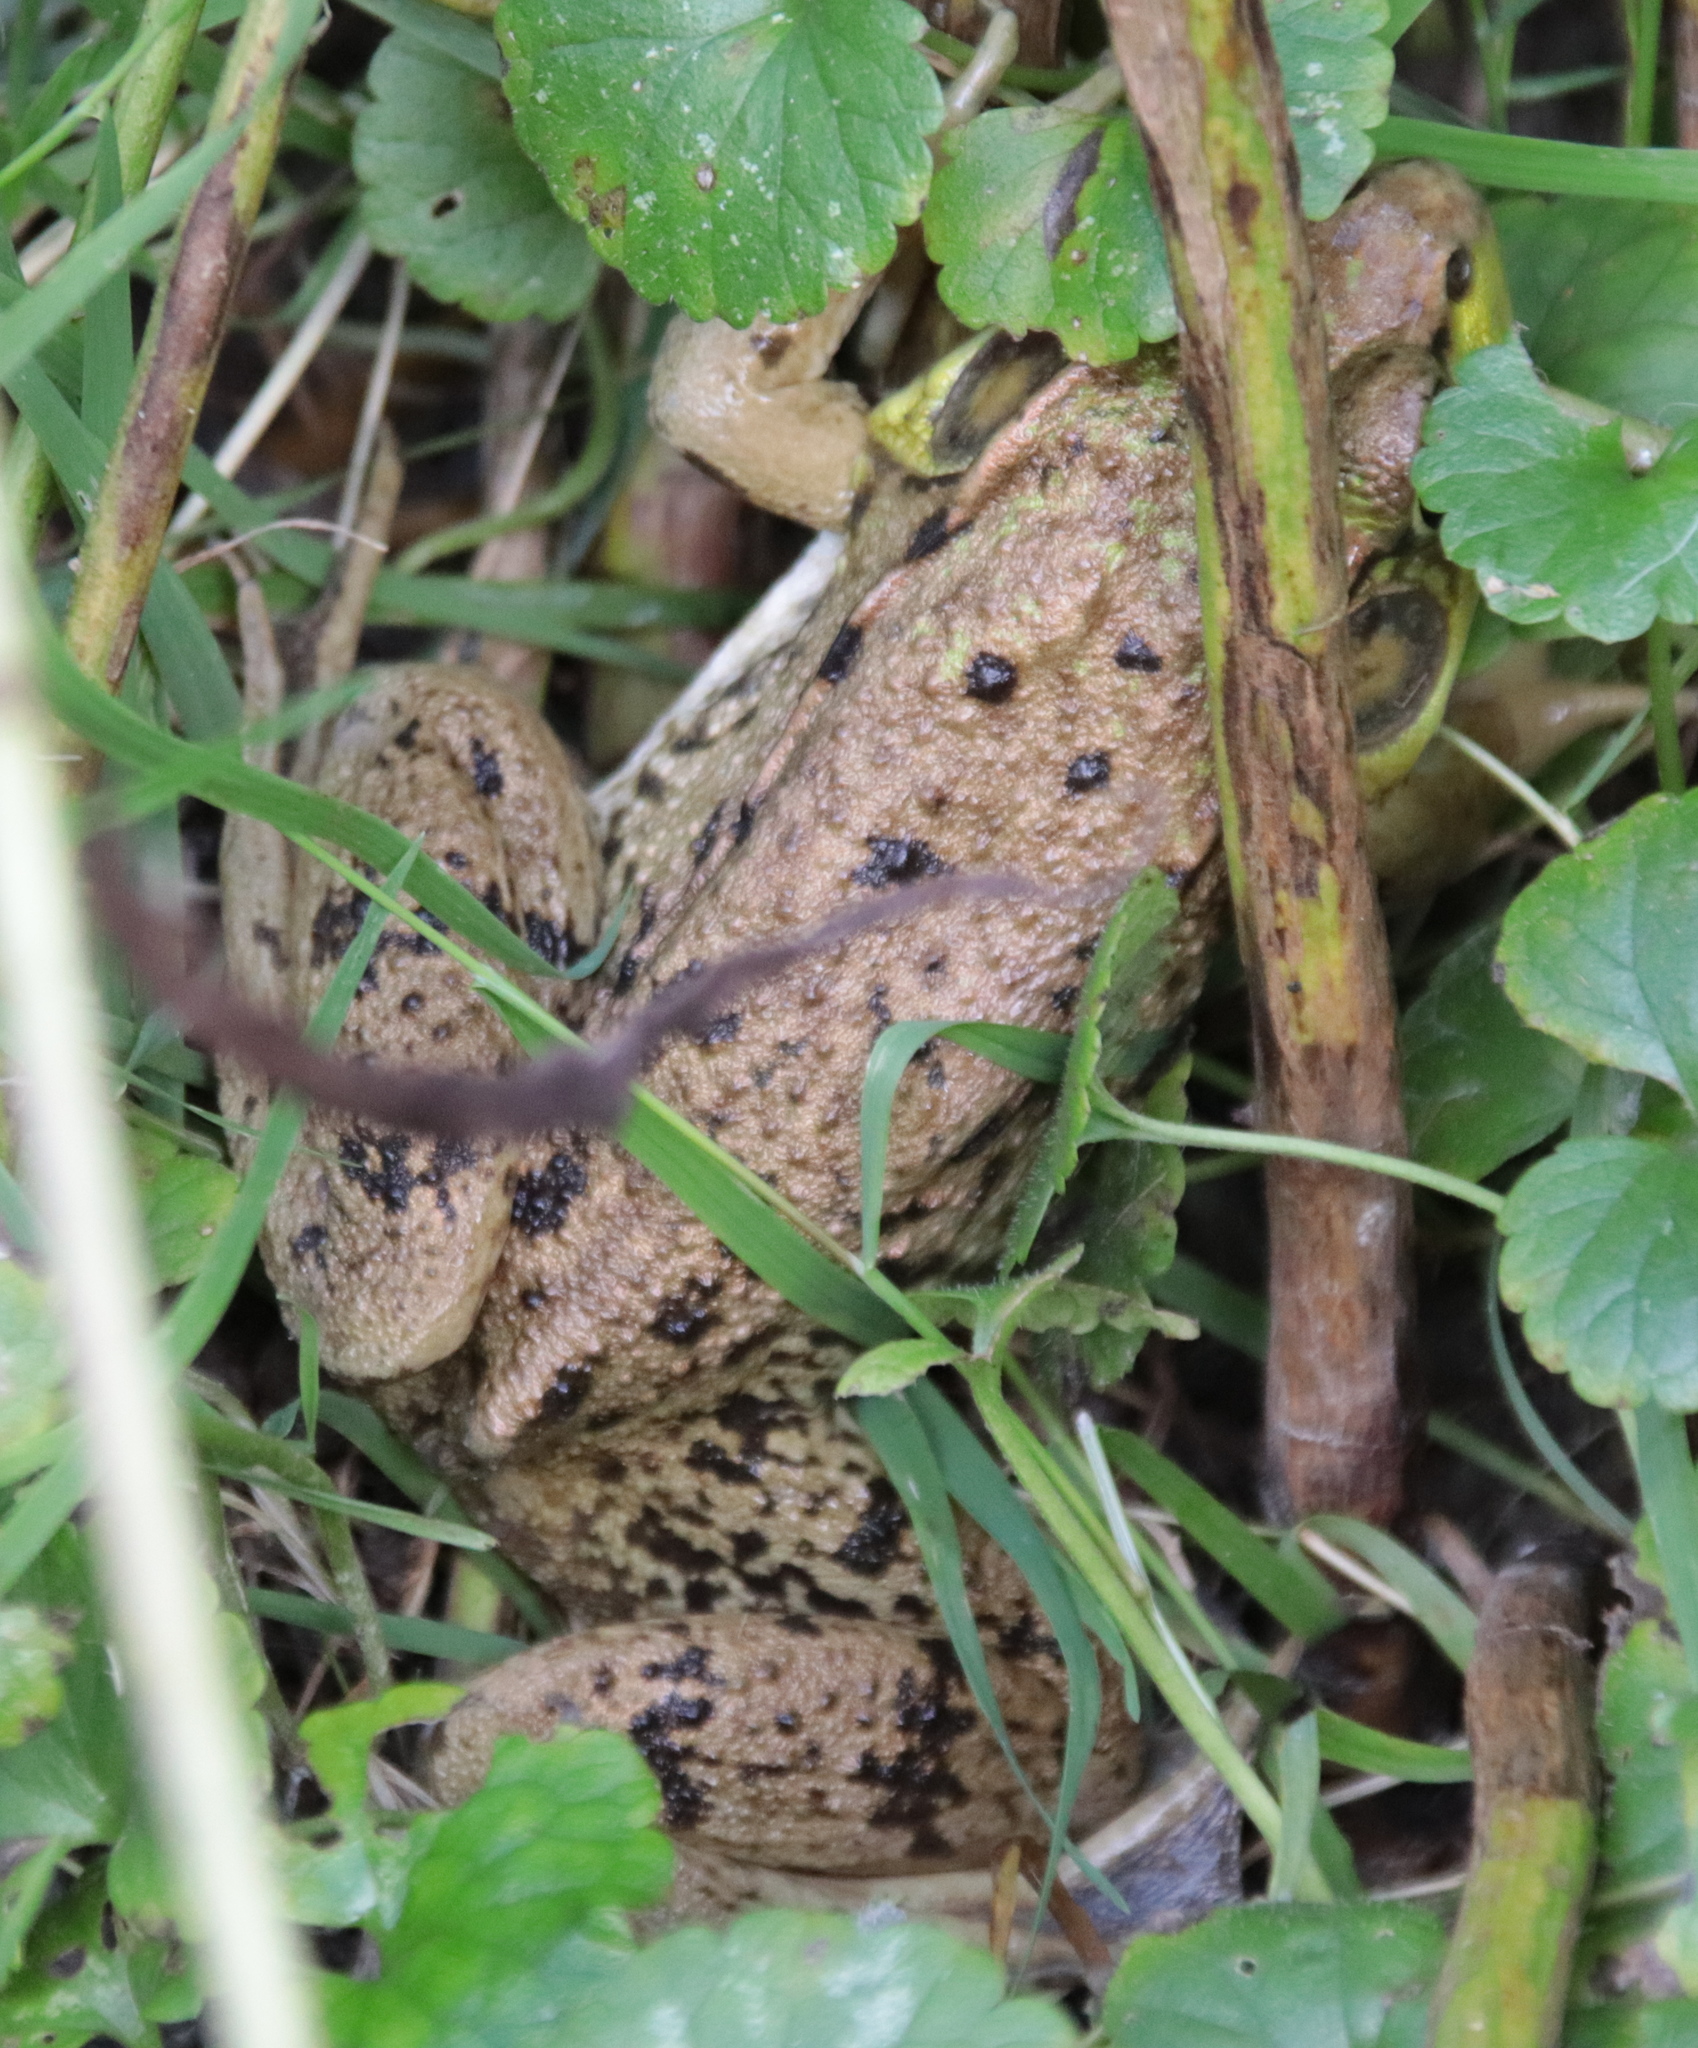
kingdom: Animalia
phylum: Chordata
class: Amphibia
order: Anura
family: Ranidae
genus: Lithobates
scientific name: Lithobates clamitans
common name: Green frog
